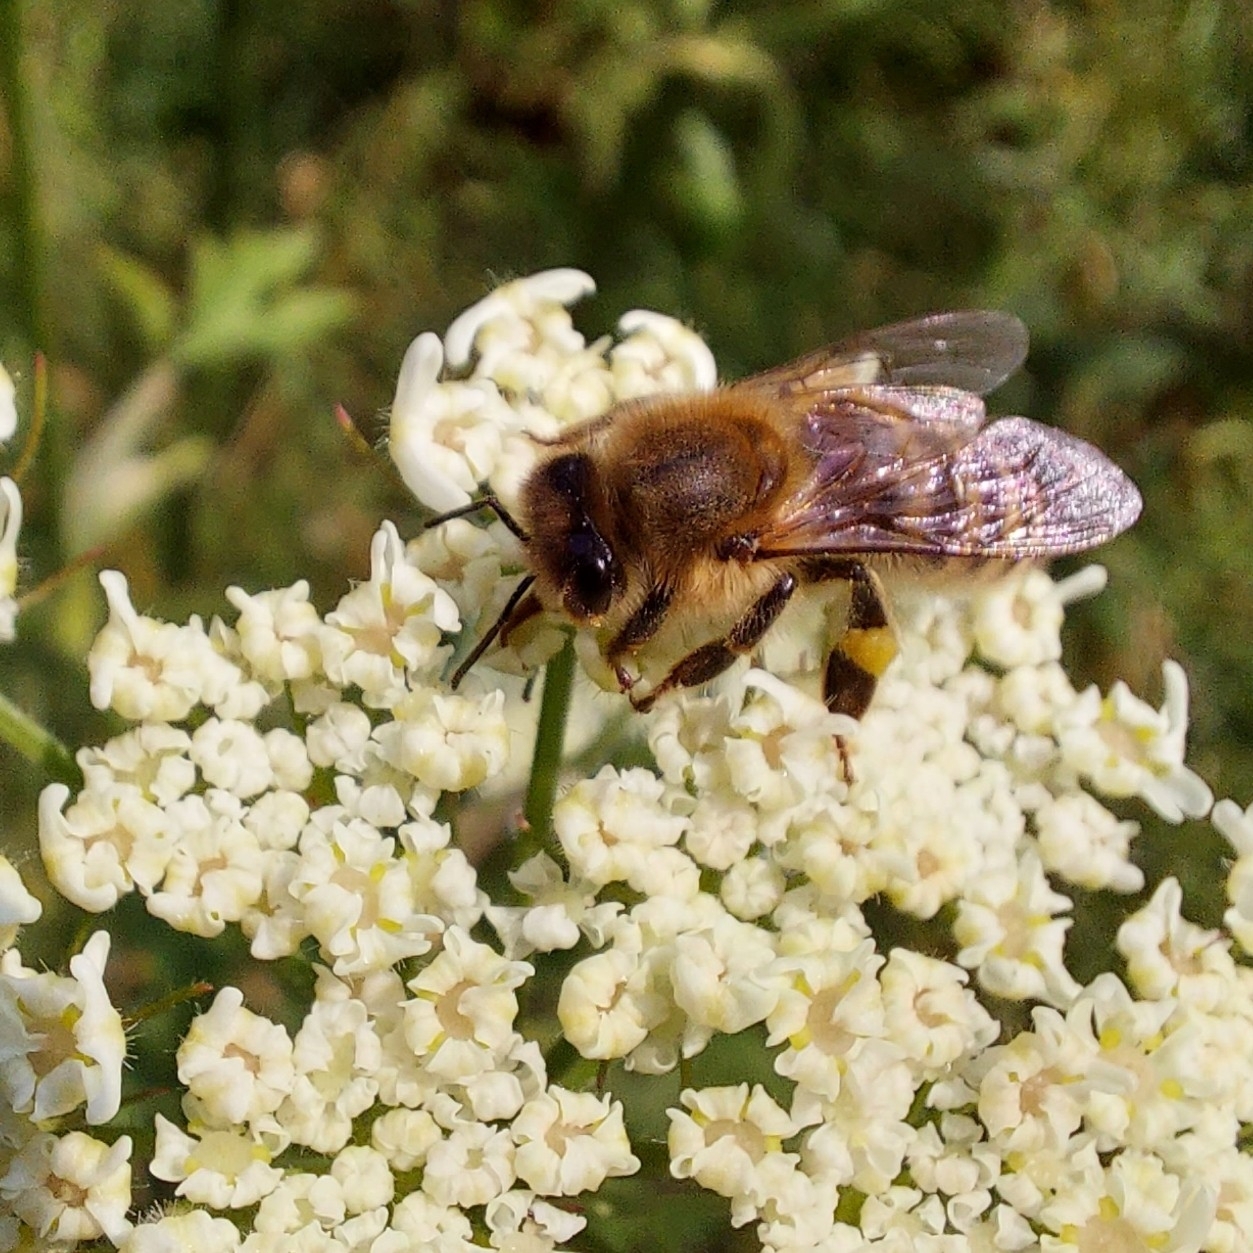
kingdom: Animalia
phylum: Arthropoda
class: Insecta
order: Hymenoptera
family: Apidae
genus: Apis
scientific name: Apis mellifera
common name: Honey bee
